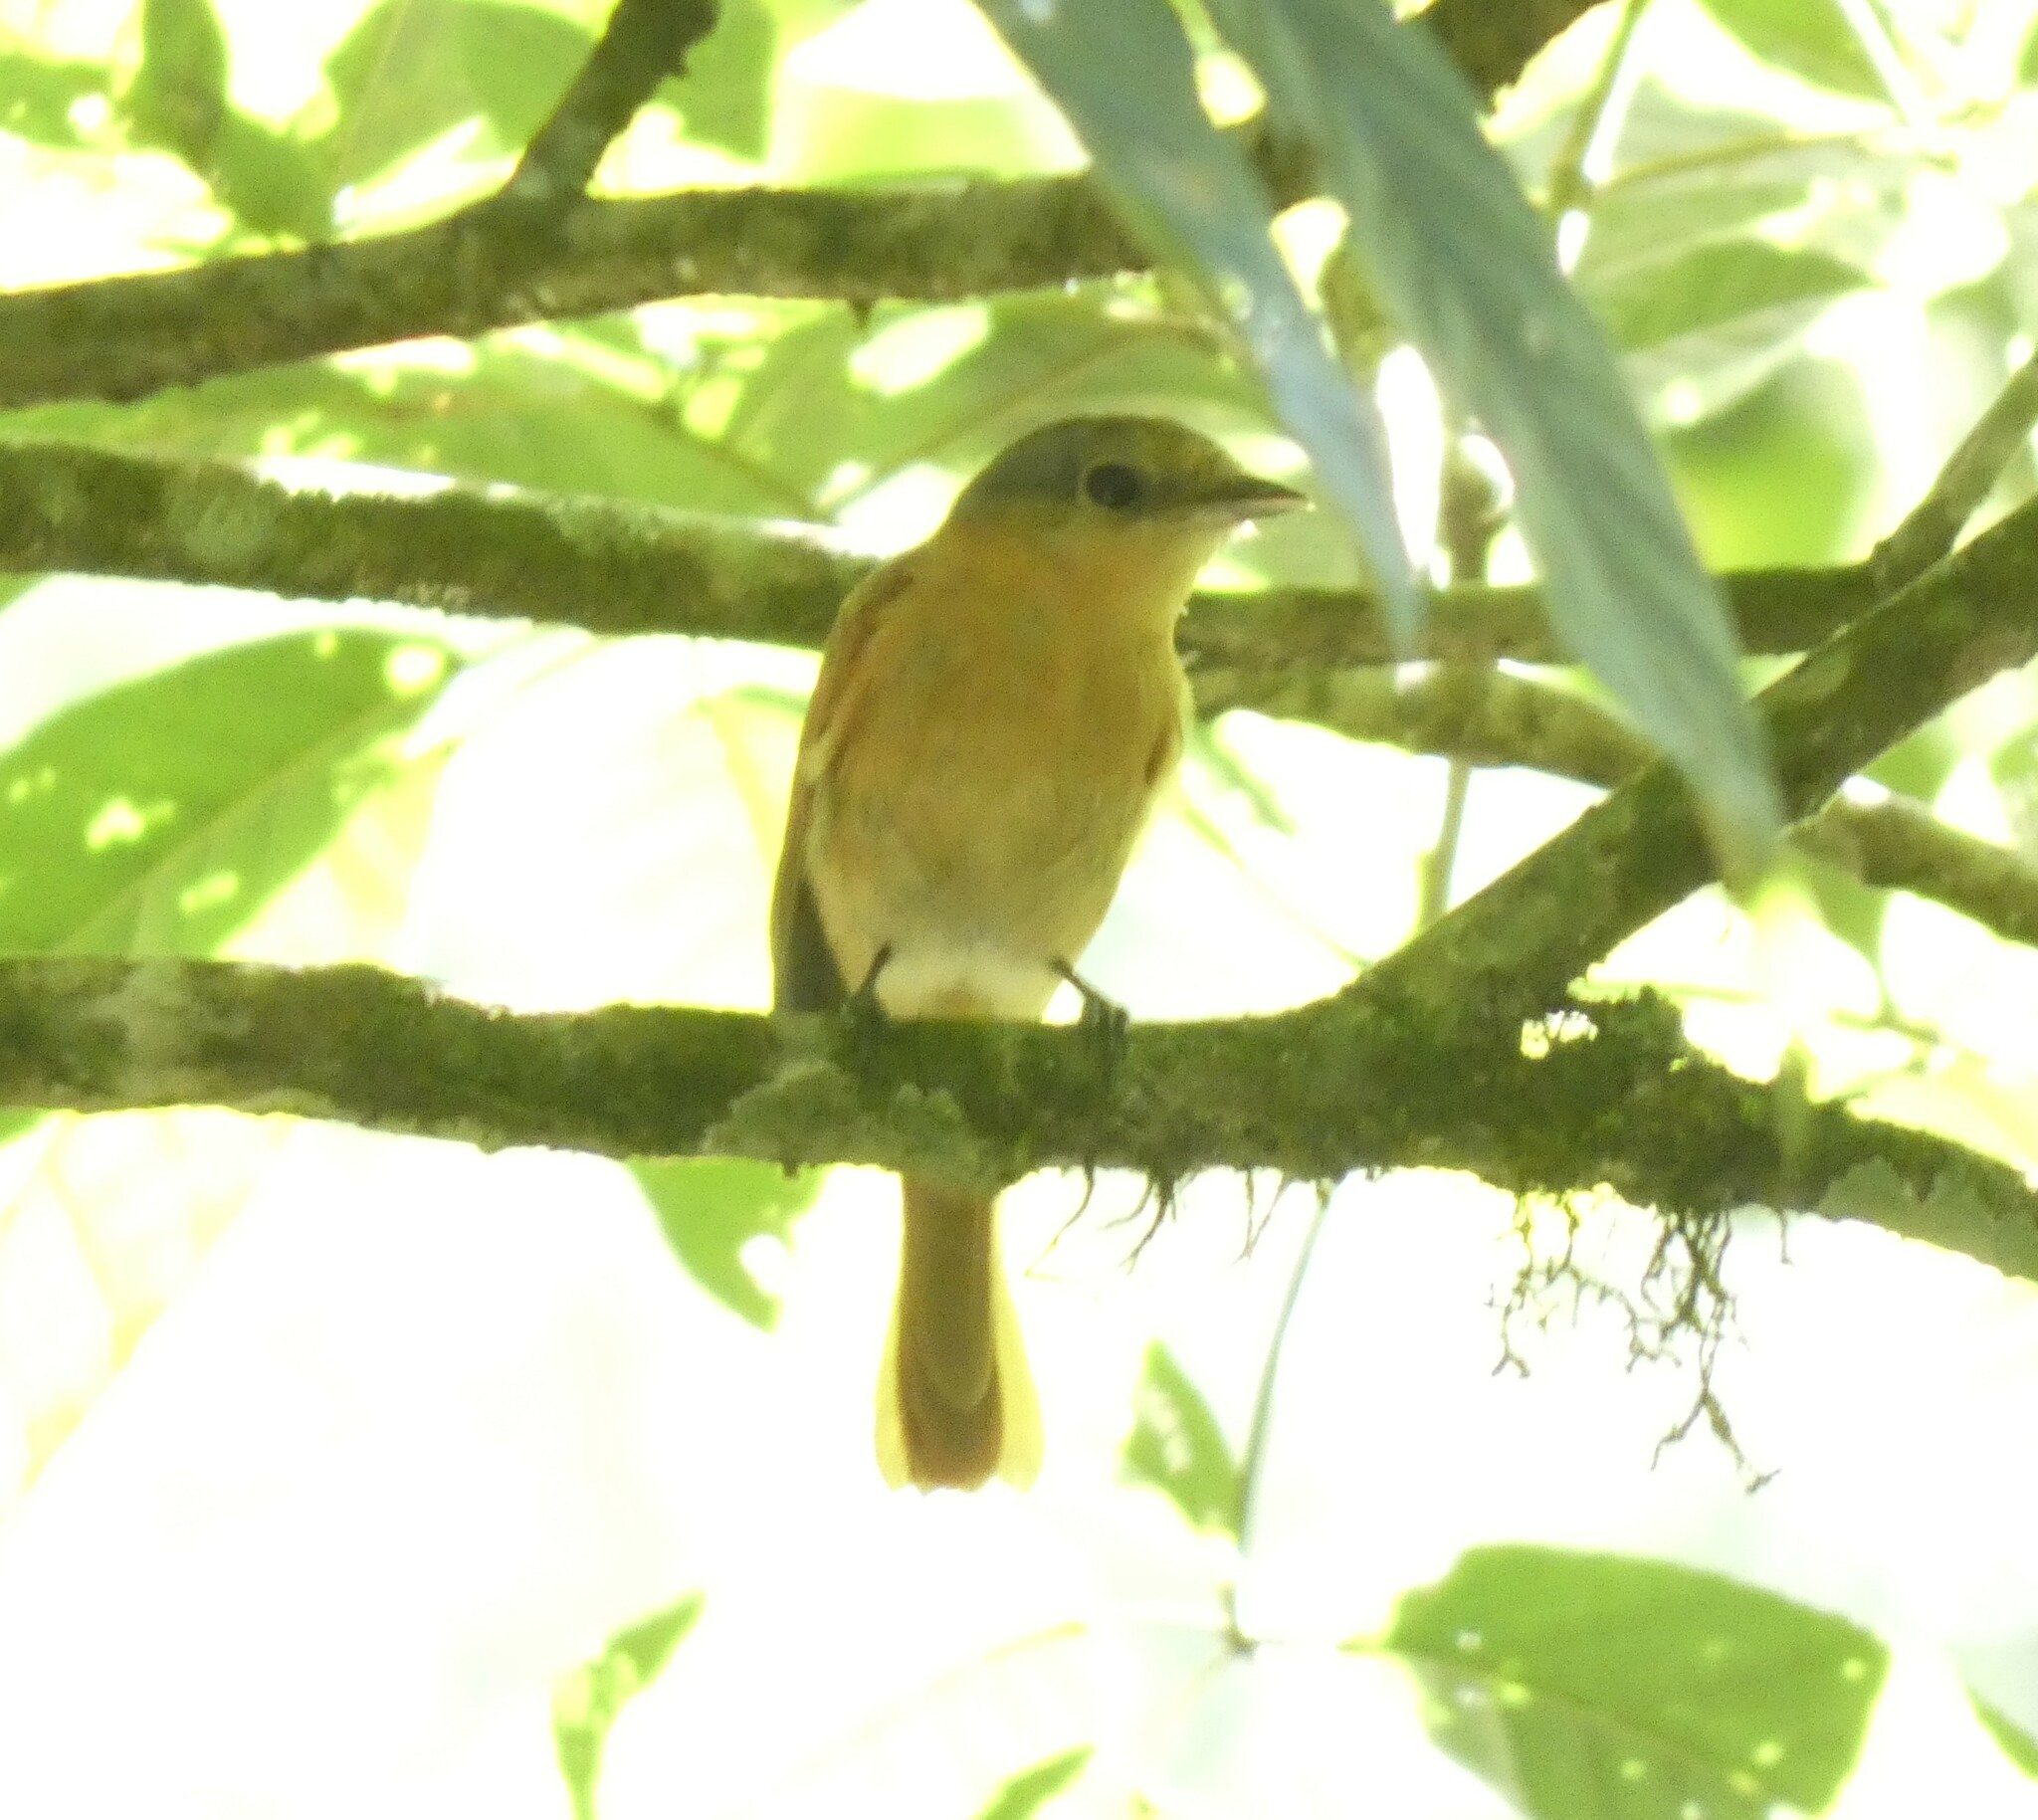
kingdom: Animalia
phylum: Chordata
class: Aves
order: Passeriformes
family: Cotingidae
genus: Pachyramphus
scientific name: Pachyramphus castaneus
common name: Chestnut-crowned becard
